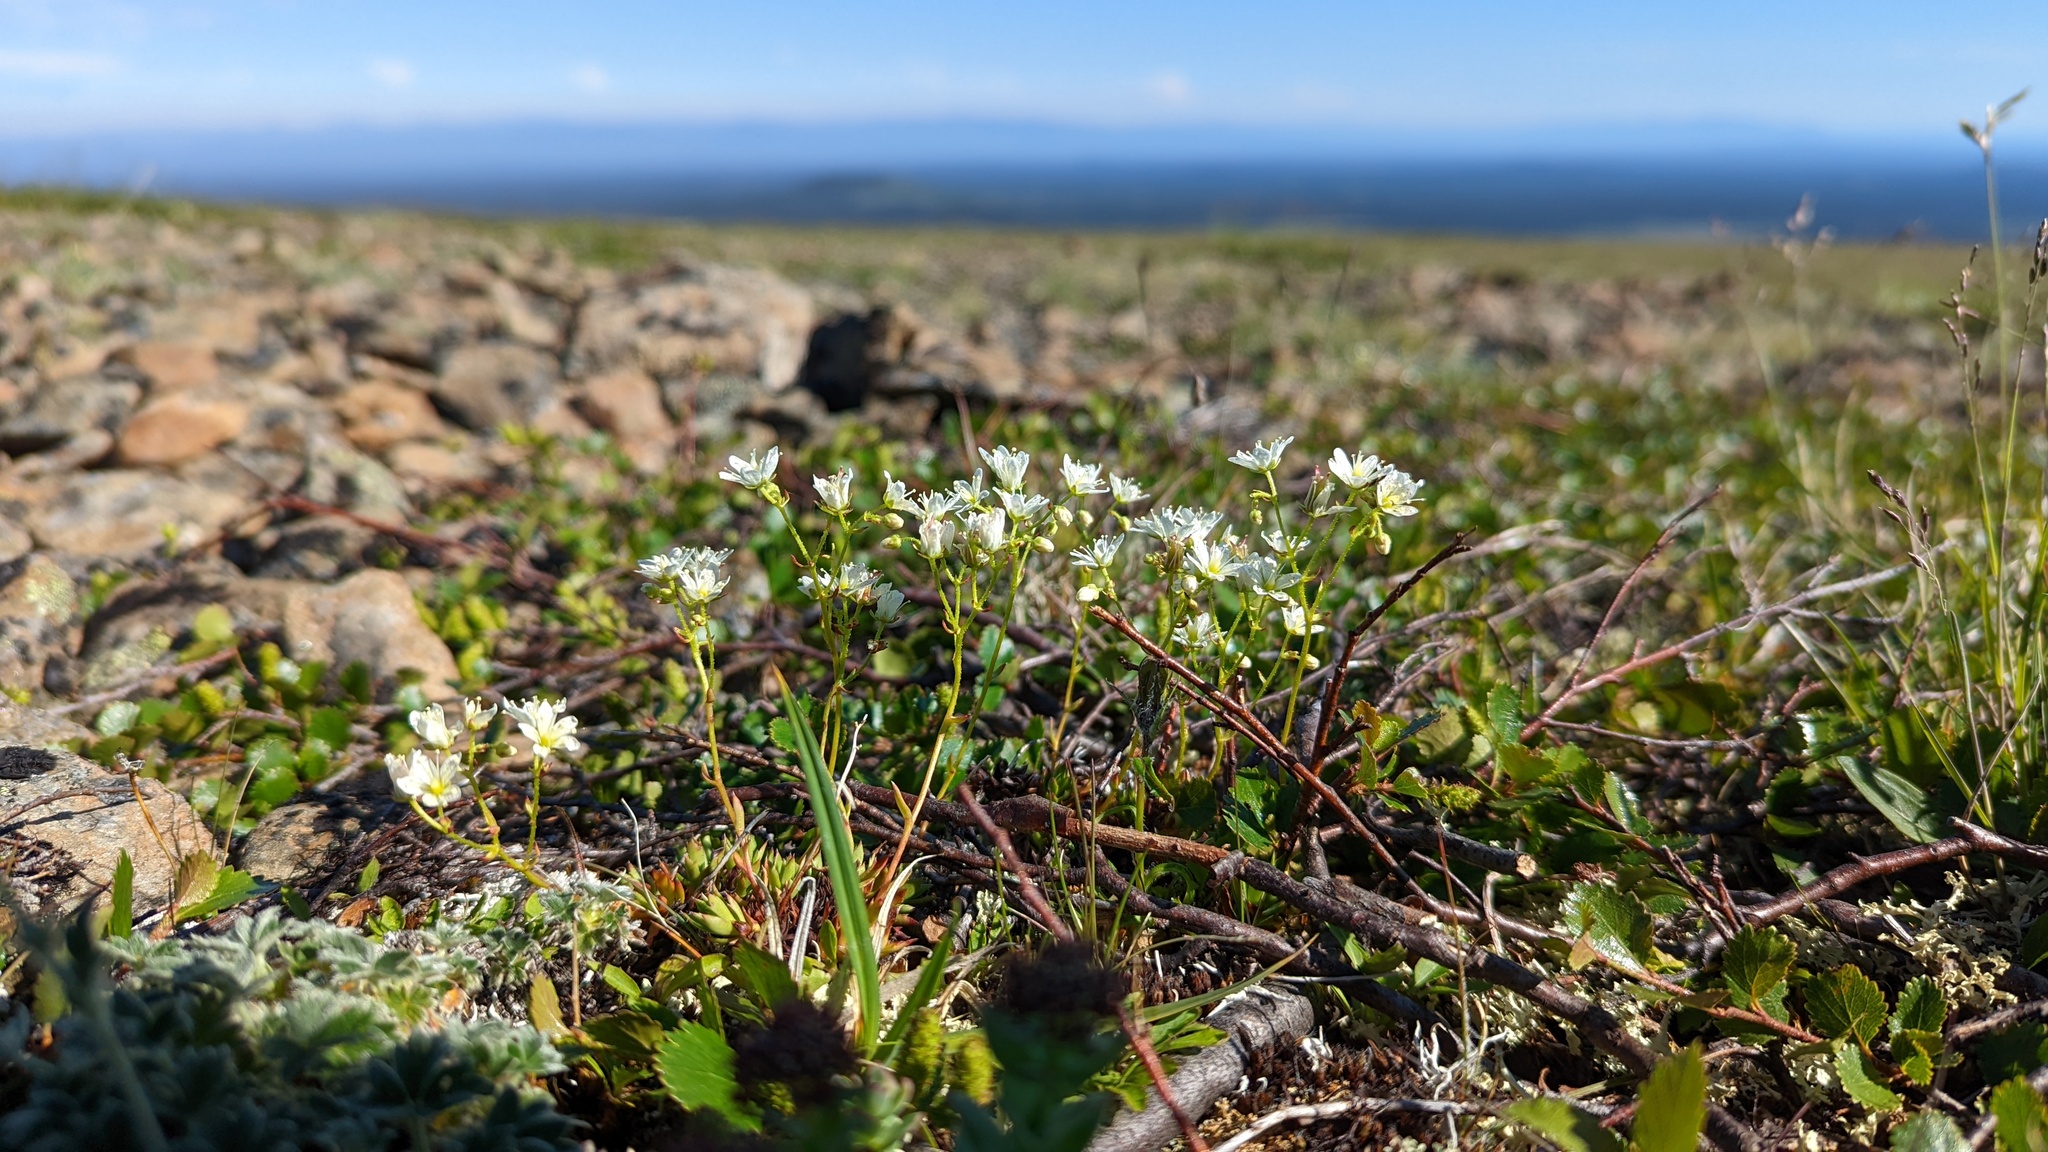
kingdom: Plantae
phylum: Tracheophyta
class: Magnoliopsida
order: Saxifragales
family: Saxifragaceae
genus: Saxifraga
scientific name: Saxifraga tricuspidata
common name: Prickly saxifrage
